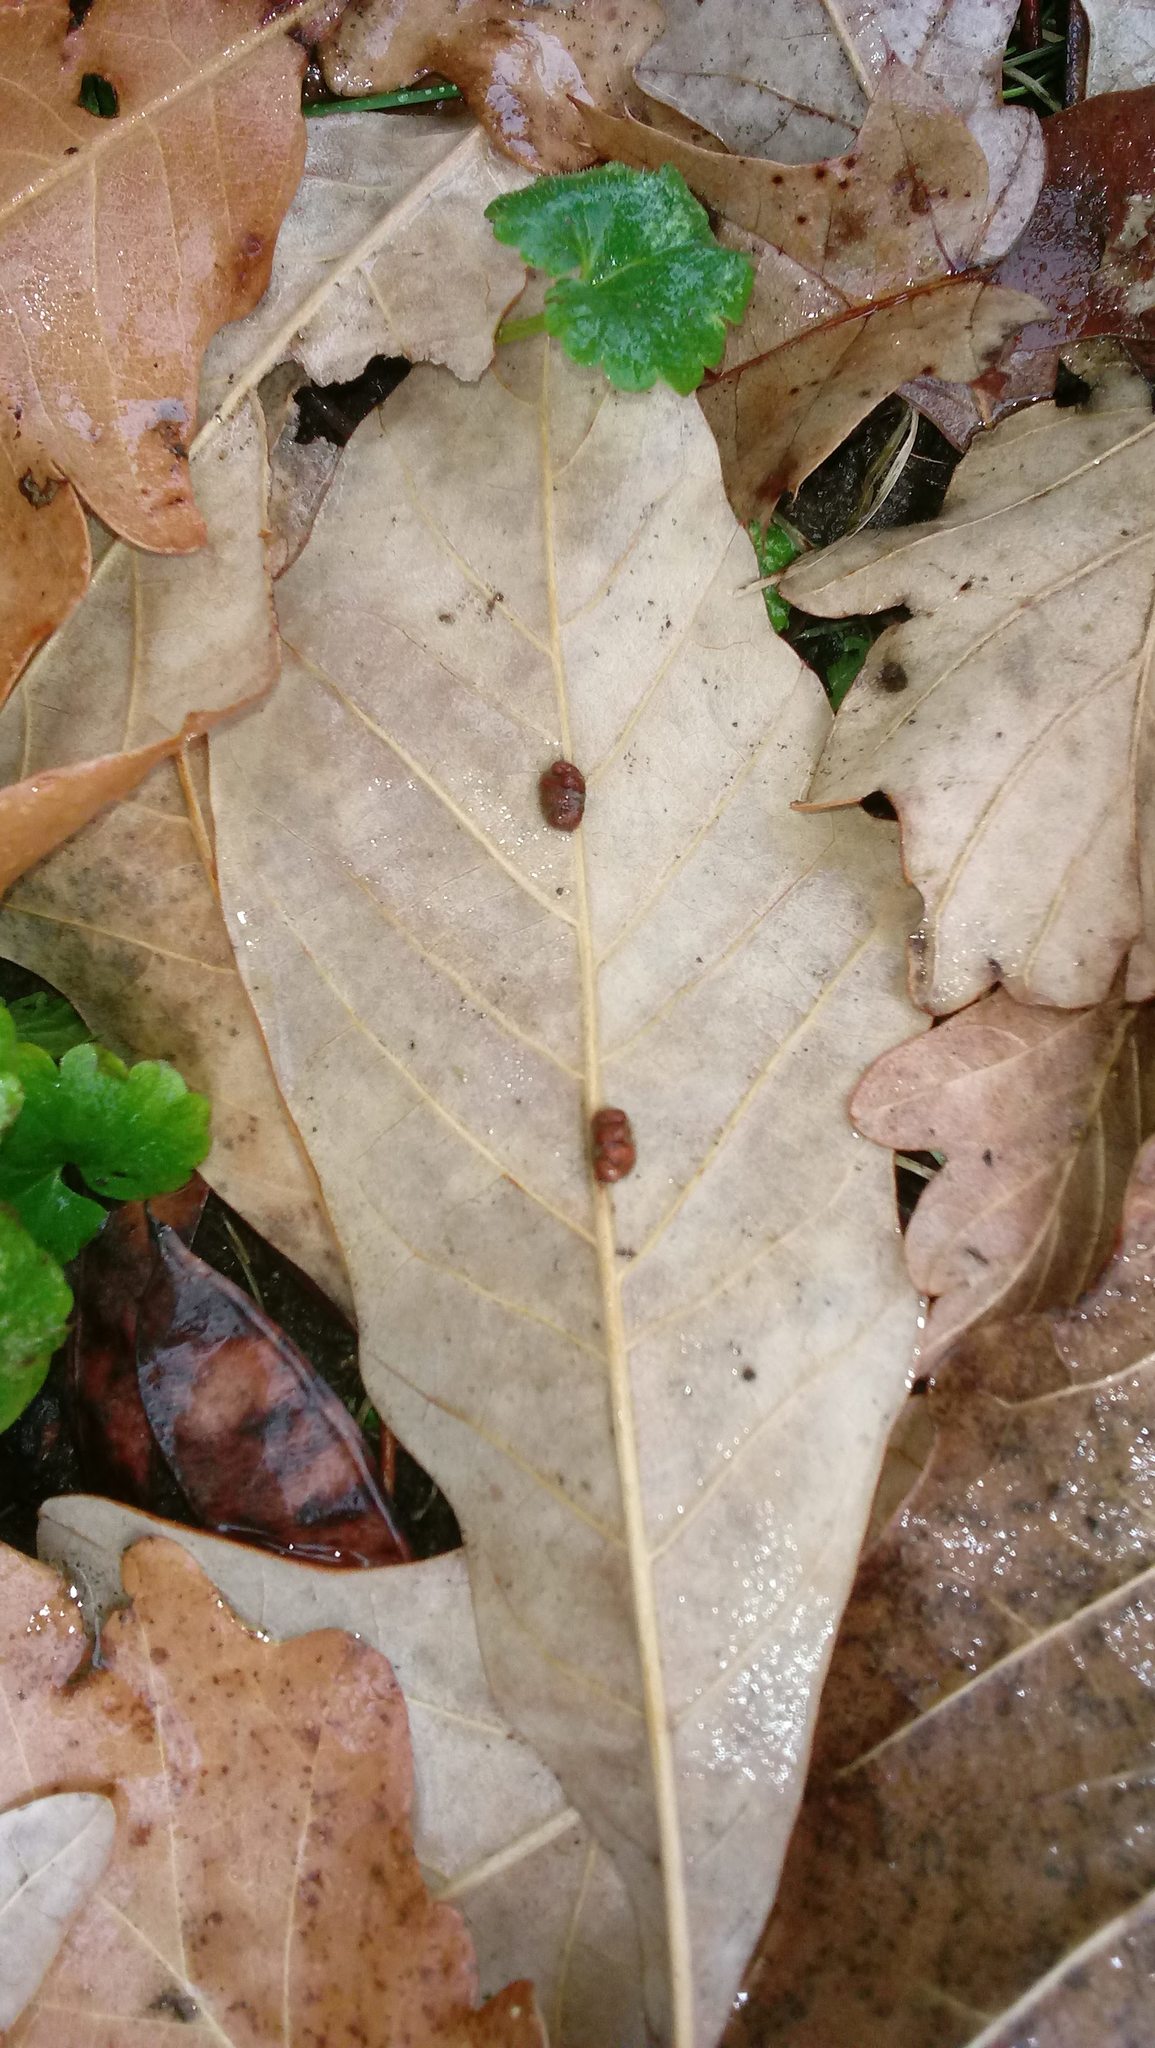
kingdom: Animalia
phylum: Arthropoda
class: Insecta
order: Hymenoptera
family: Cynipidae
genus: Andricus
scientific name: Andricus Druon ignotum
